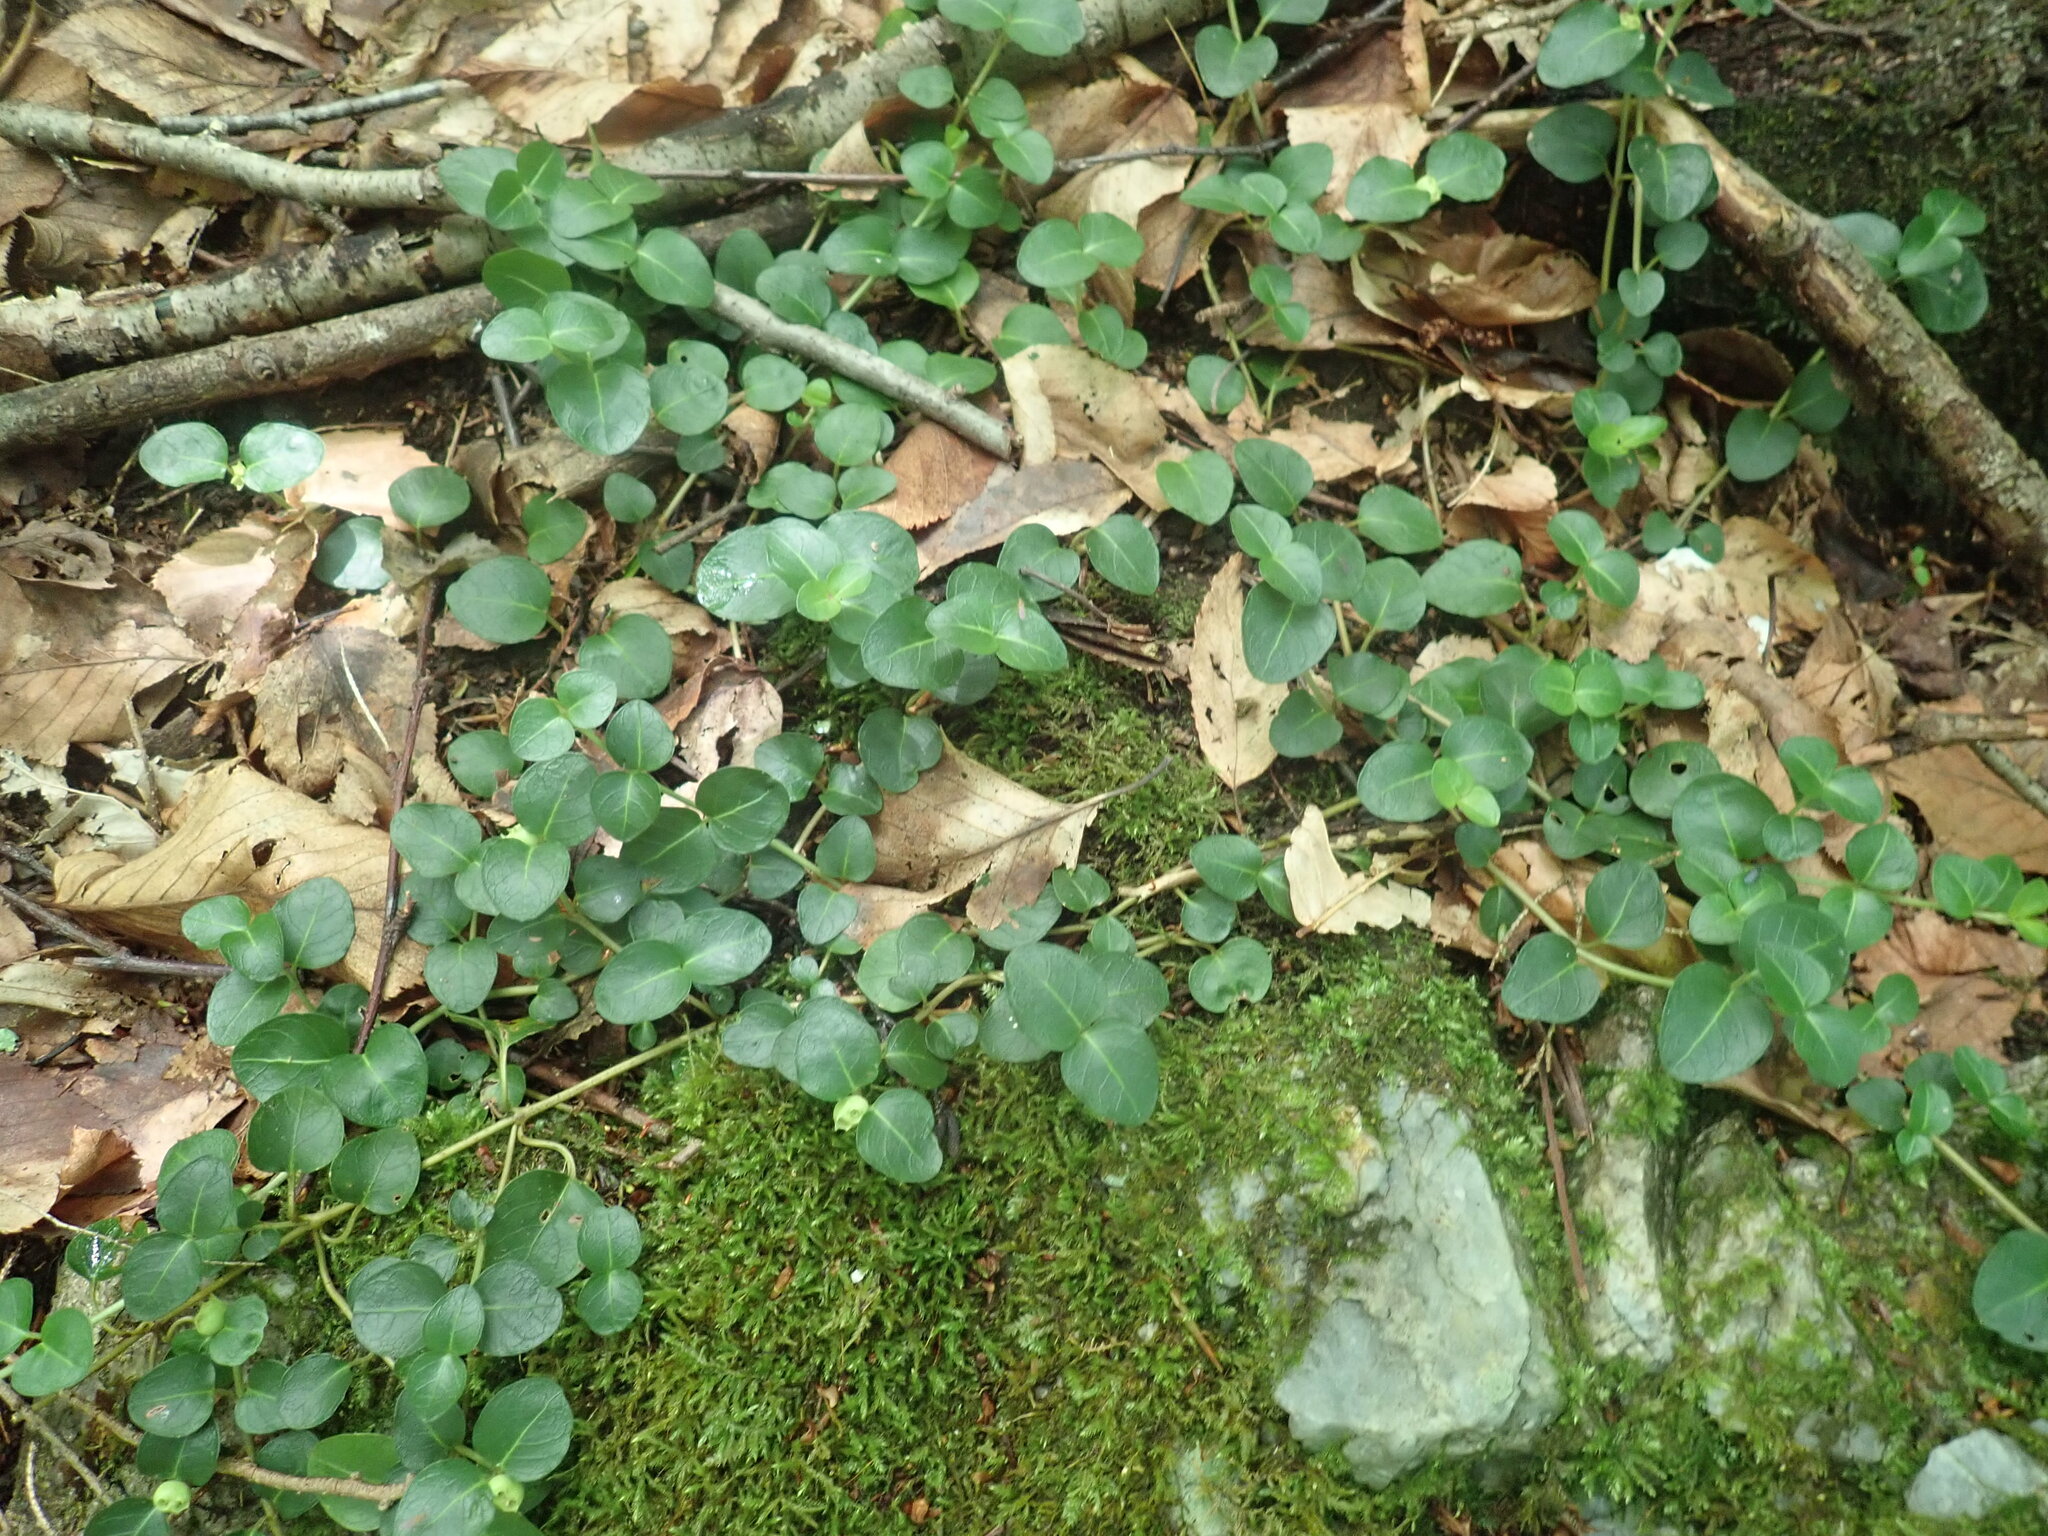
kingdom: Plantae
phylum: Tracheophyta
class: Magnoliopsida
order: Gentianales
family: Rubiaceae
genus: Mitchella
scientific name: Mitchella repens
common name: Partridge-berry
